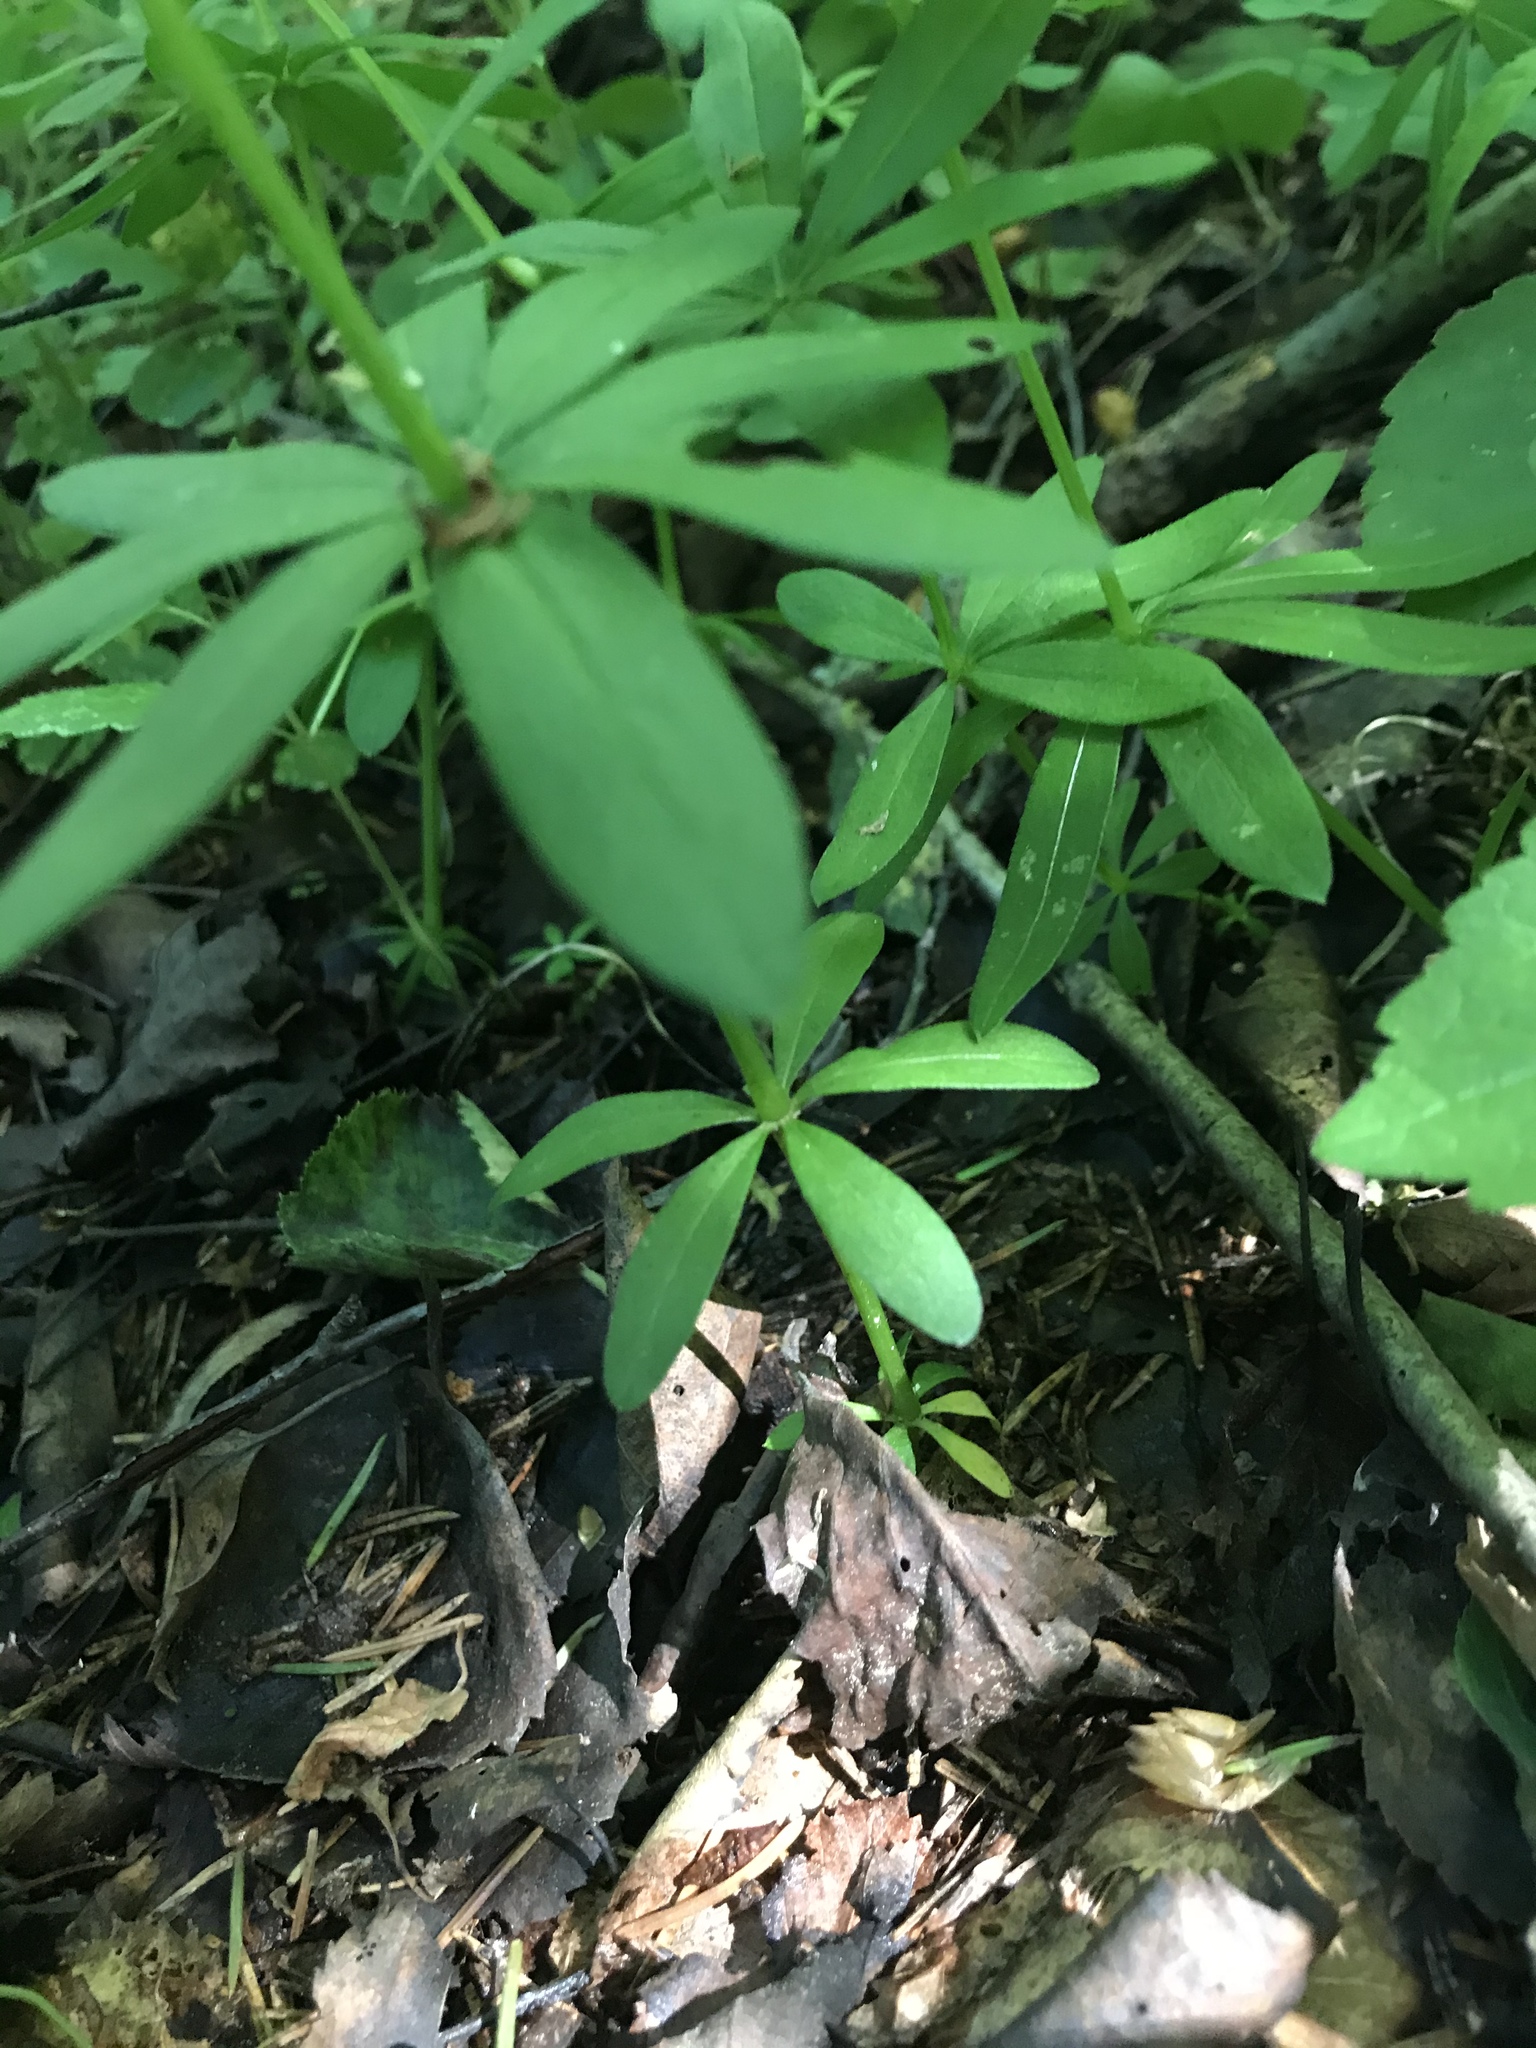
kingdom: Plantae
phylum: Tracheophyta
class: Magnoliopsida
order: Gentianales
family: Rubiaceae
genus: Galium
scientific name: Galium odoratum
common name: Sweet woodruff
